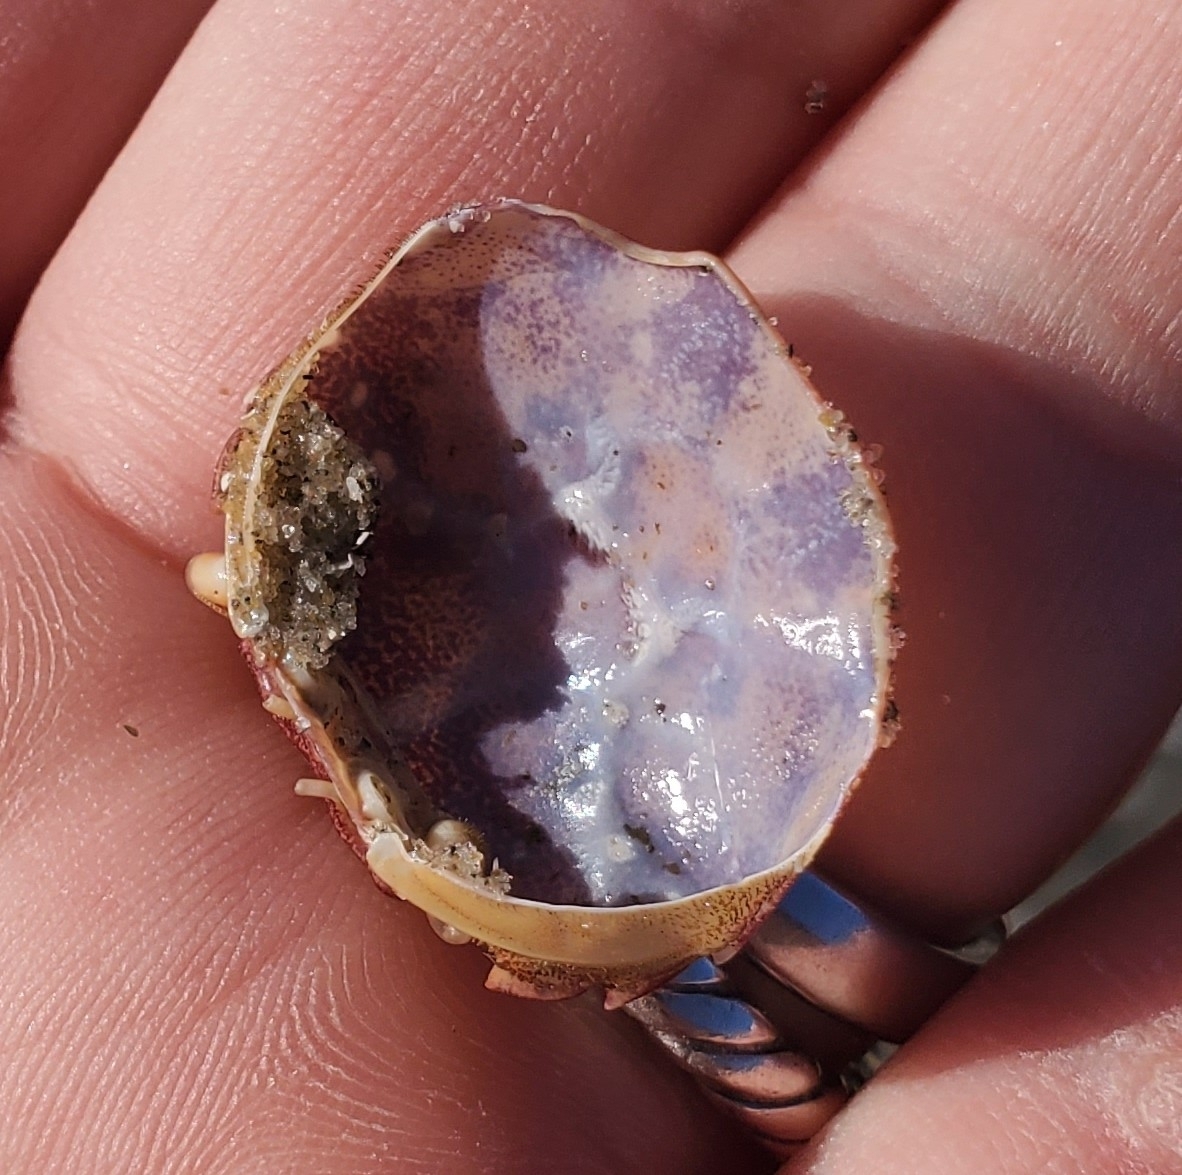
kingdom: Animalia
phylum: Arthropoda
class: Malacostraca
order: Decapoda
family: Varunidae
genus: Hemigrapsus
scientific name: Hemigrapsus sanguineus
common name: Asian shore crab
